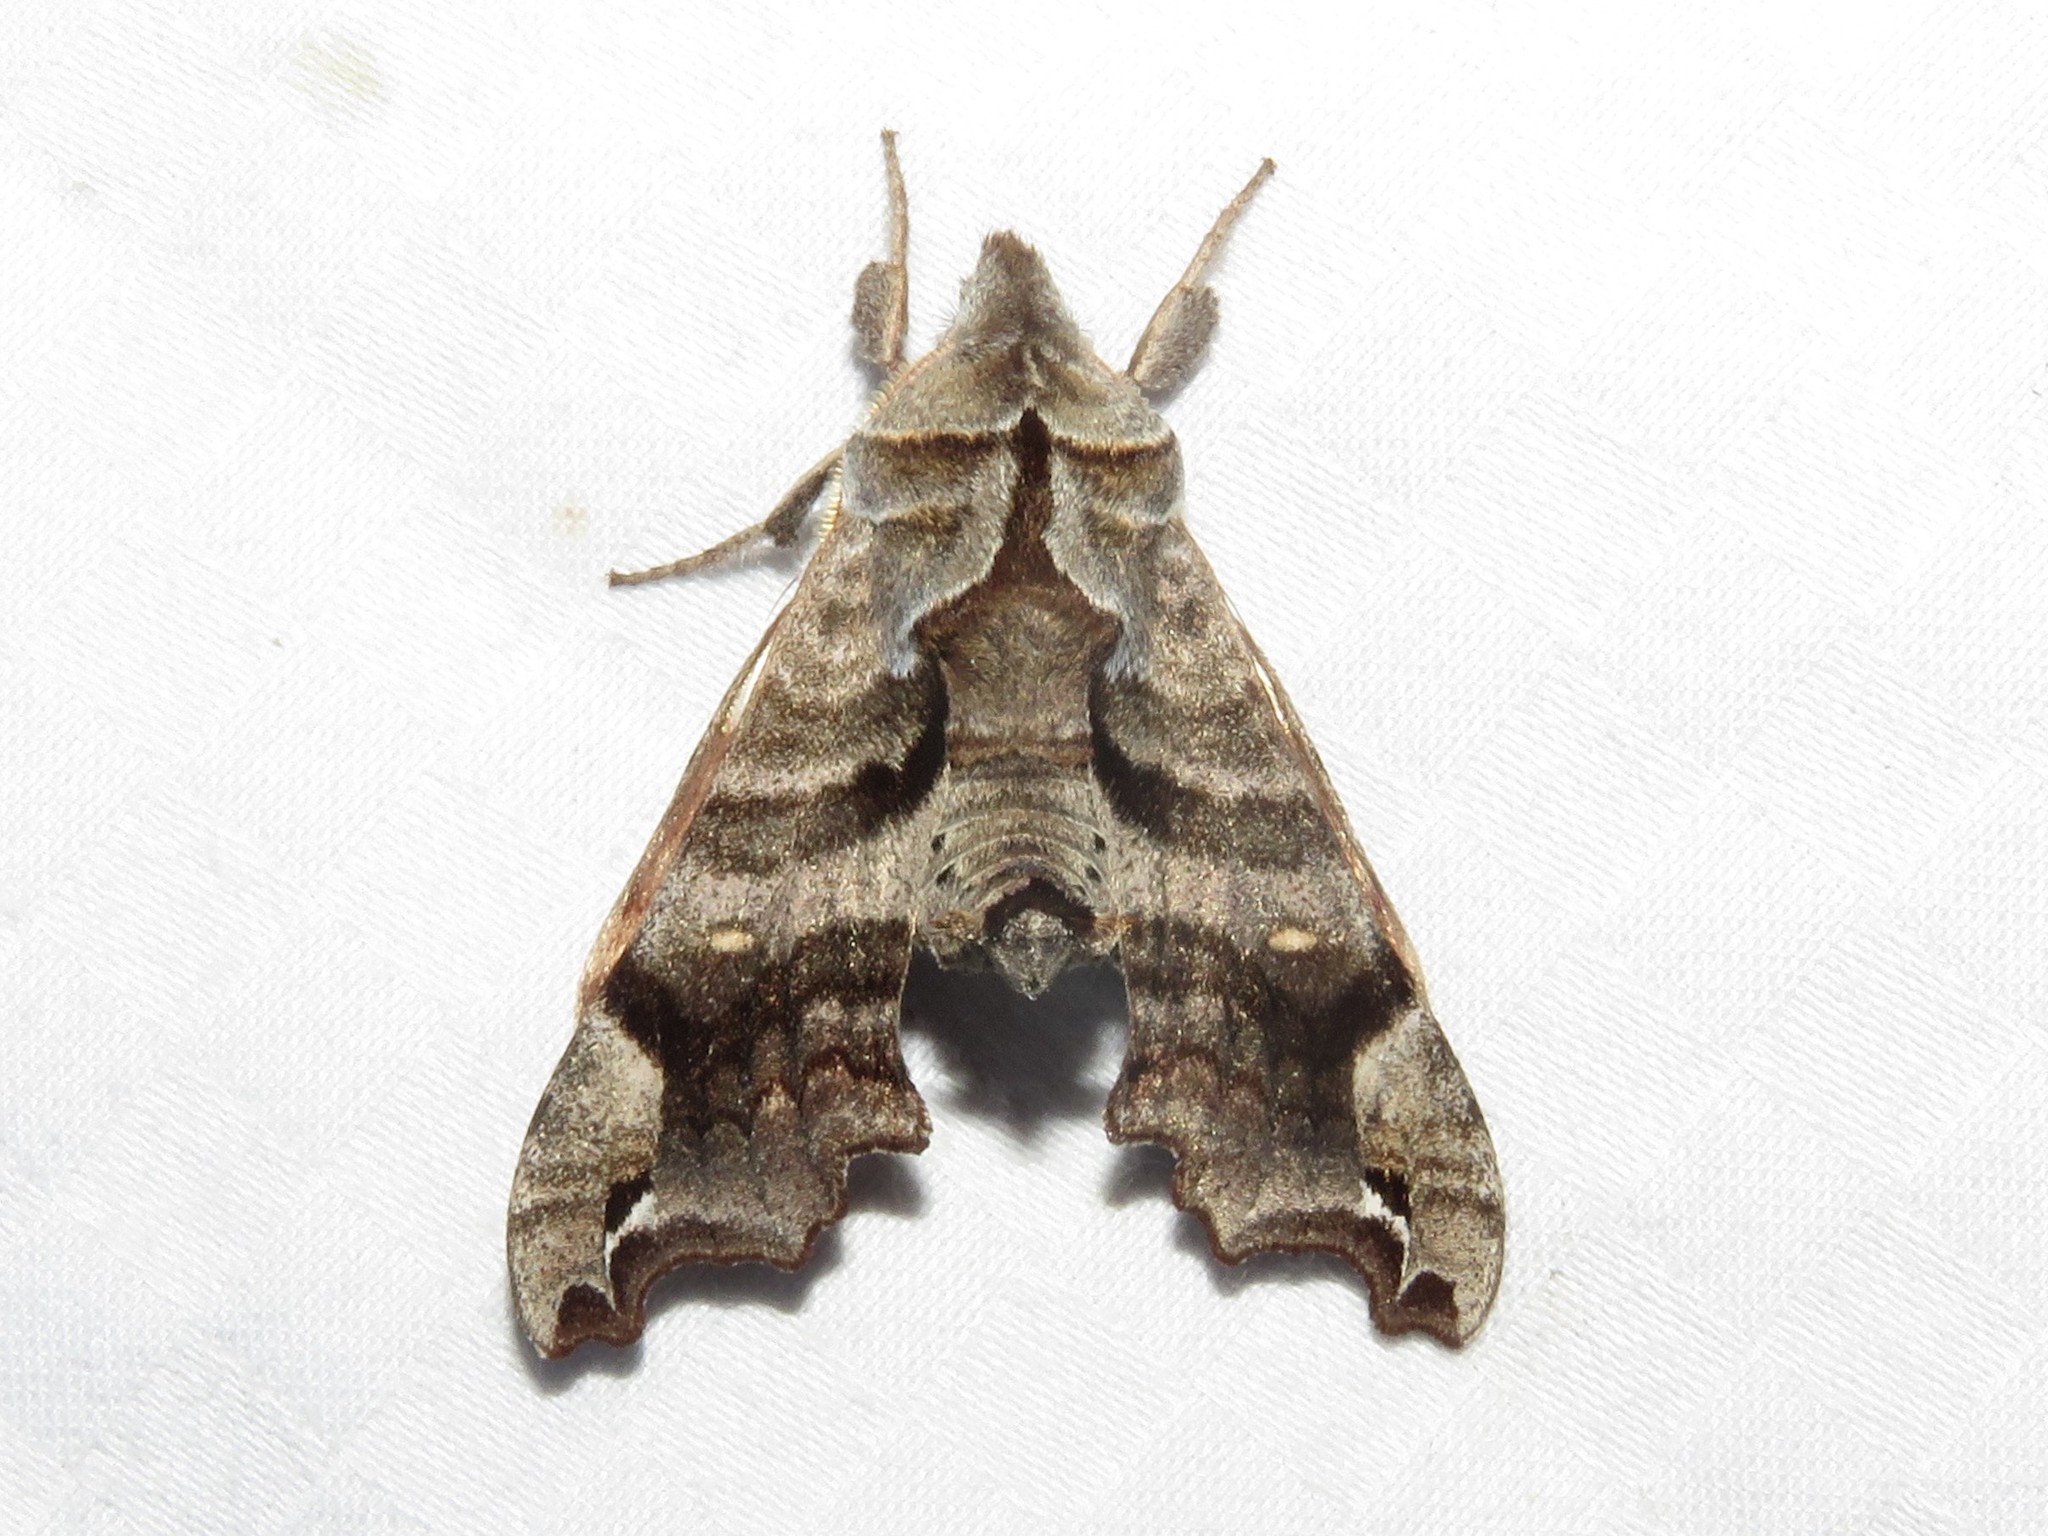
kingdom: Animalia
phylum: Arthropoda
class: Insecta
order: Lepidoptera
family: Sphingidae
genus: Deidamia
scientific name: Deidamia inscriptum
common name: Lettered sphinx
